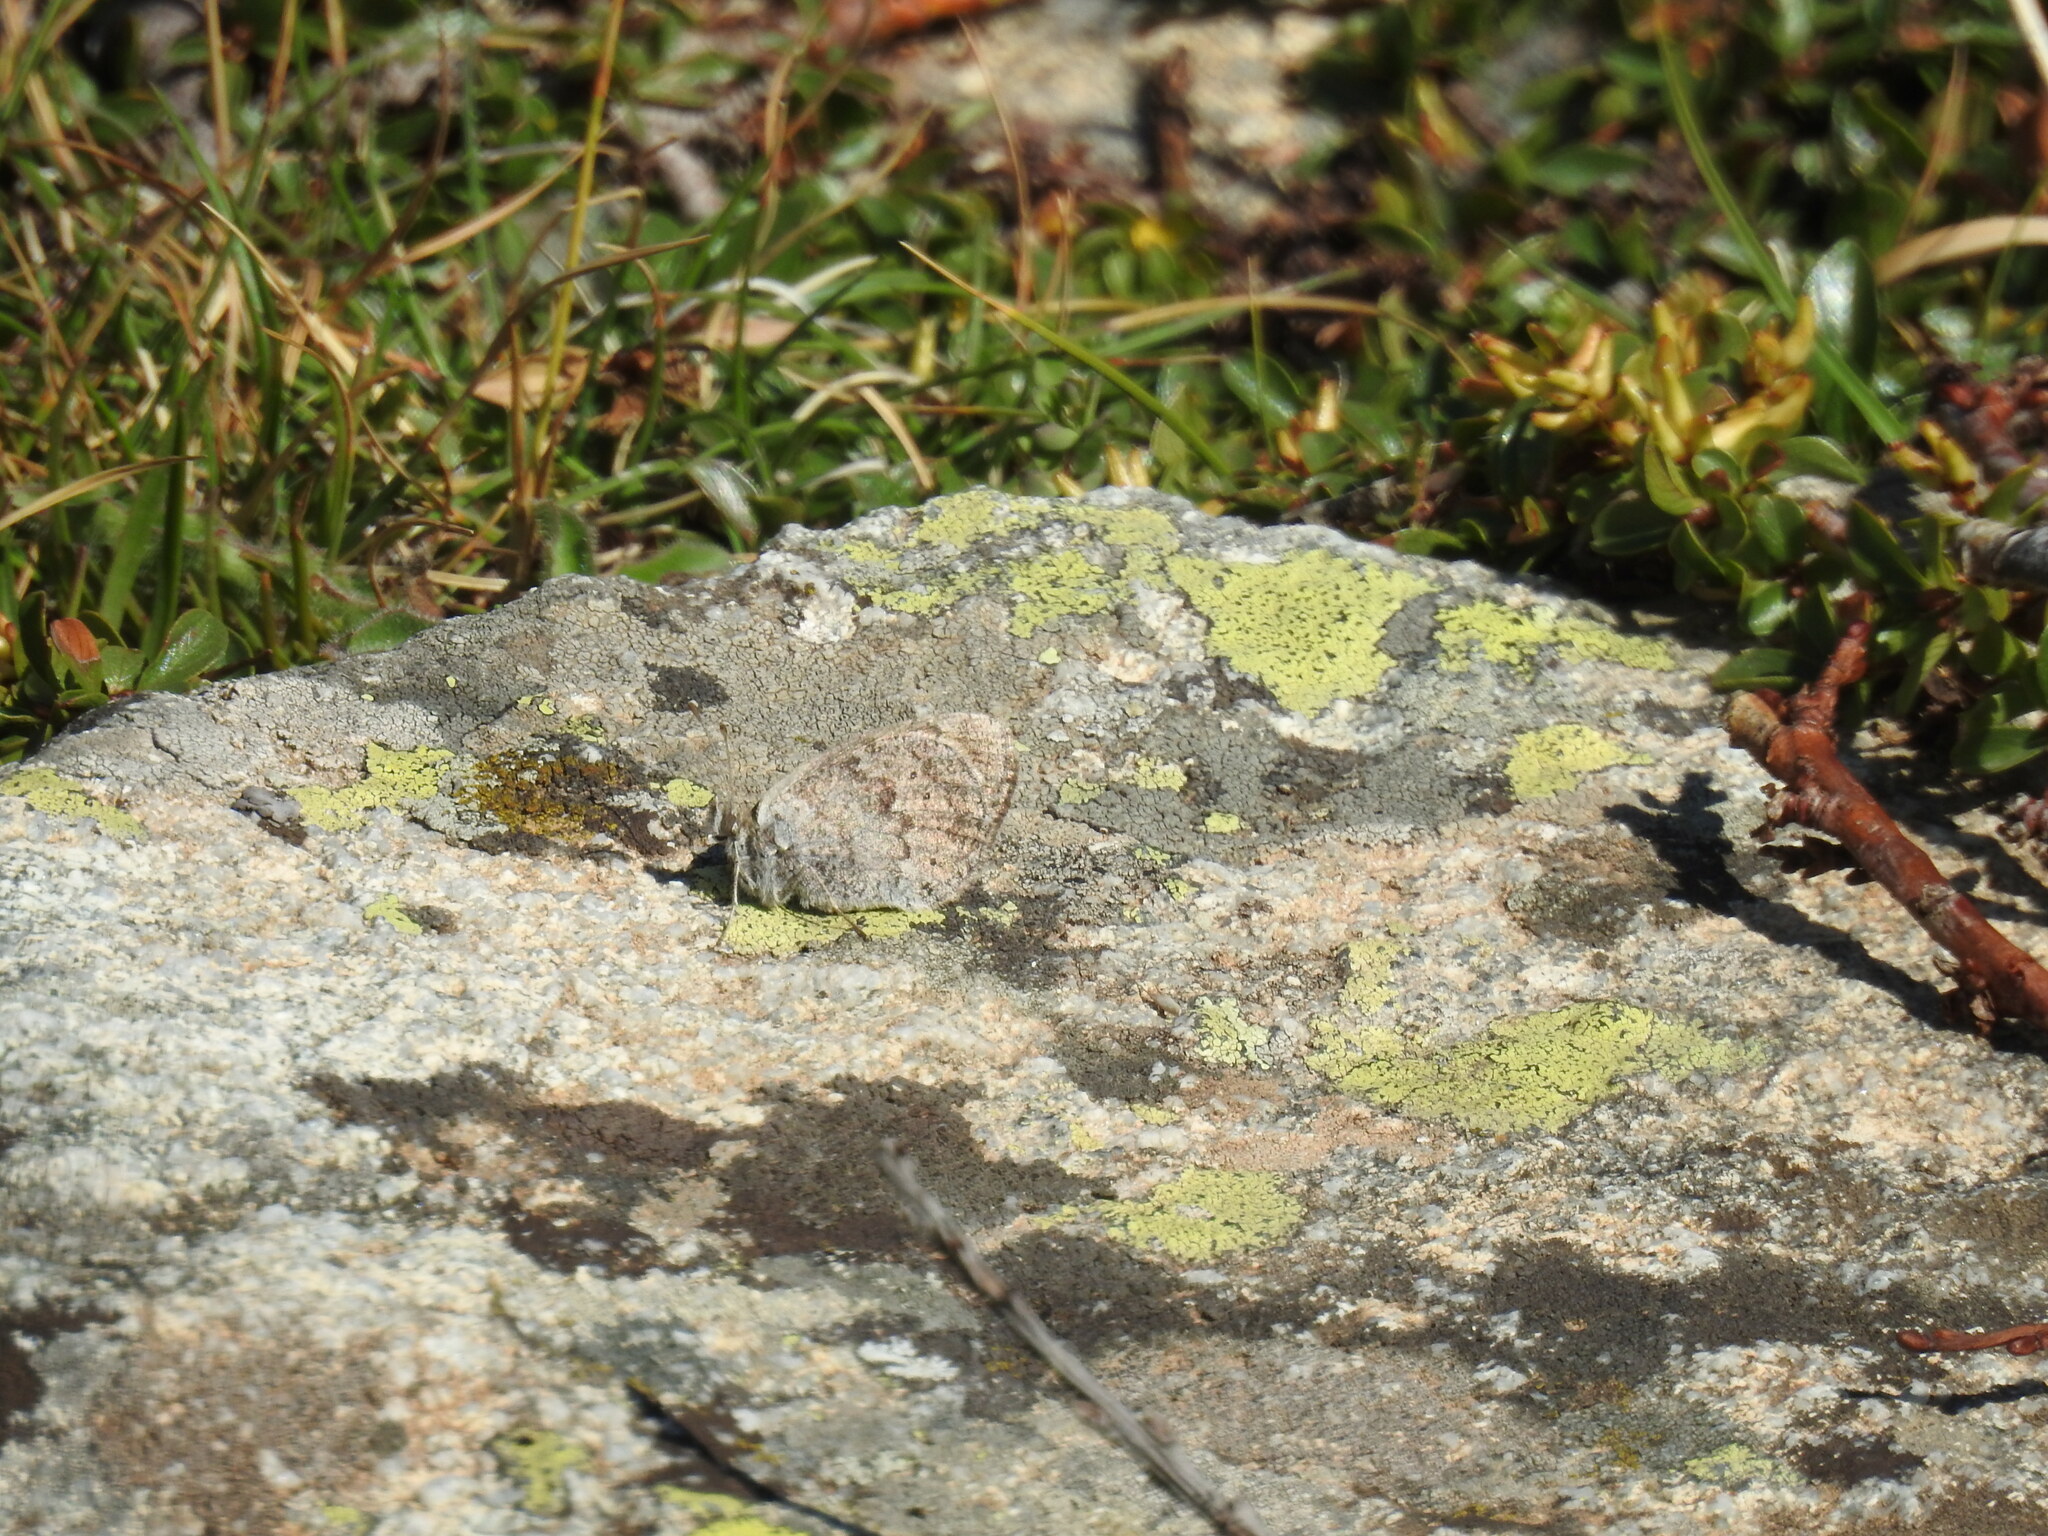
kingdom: Animalia
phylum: Arthropoda
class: Insecta
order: Lepidoptera
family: Nymphalidae
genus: Erebia
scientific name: Erebia cassioides
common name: Common brassy ringlet
